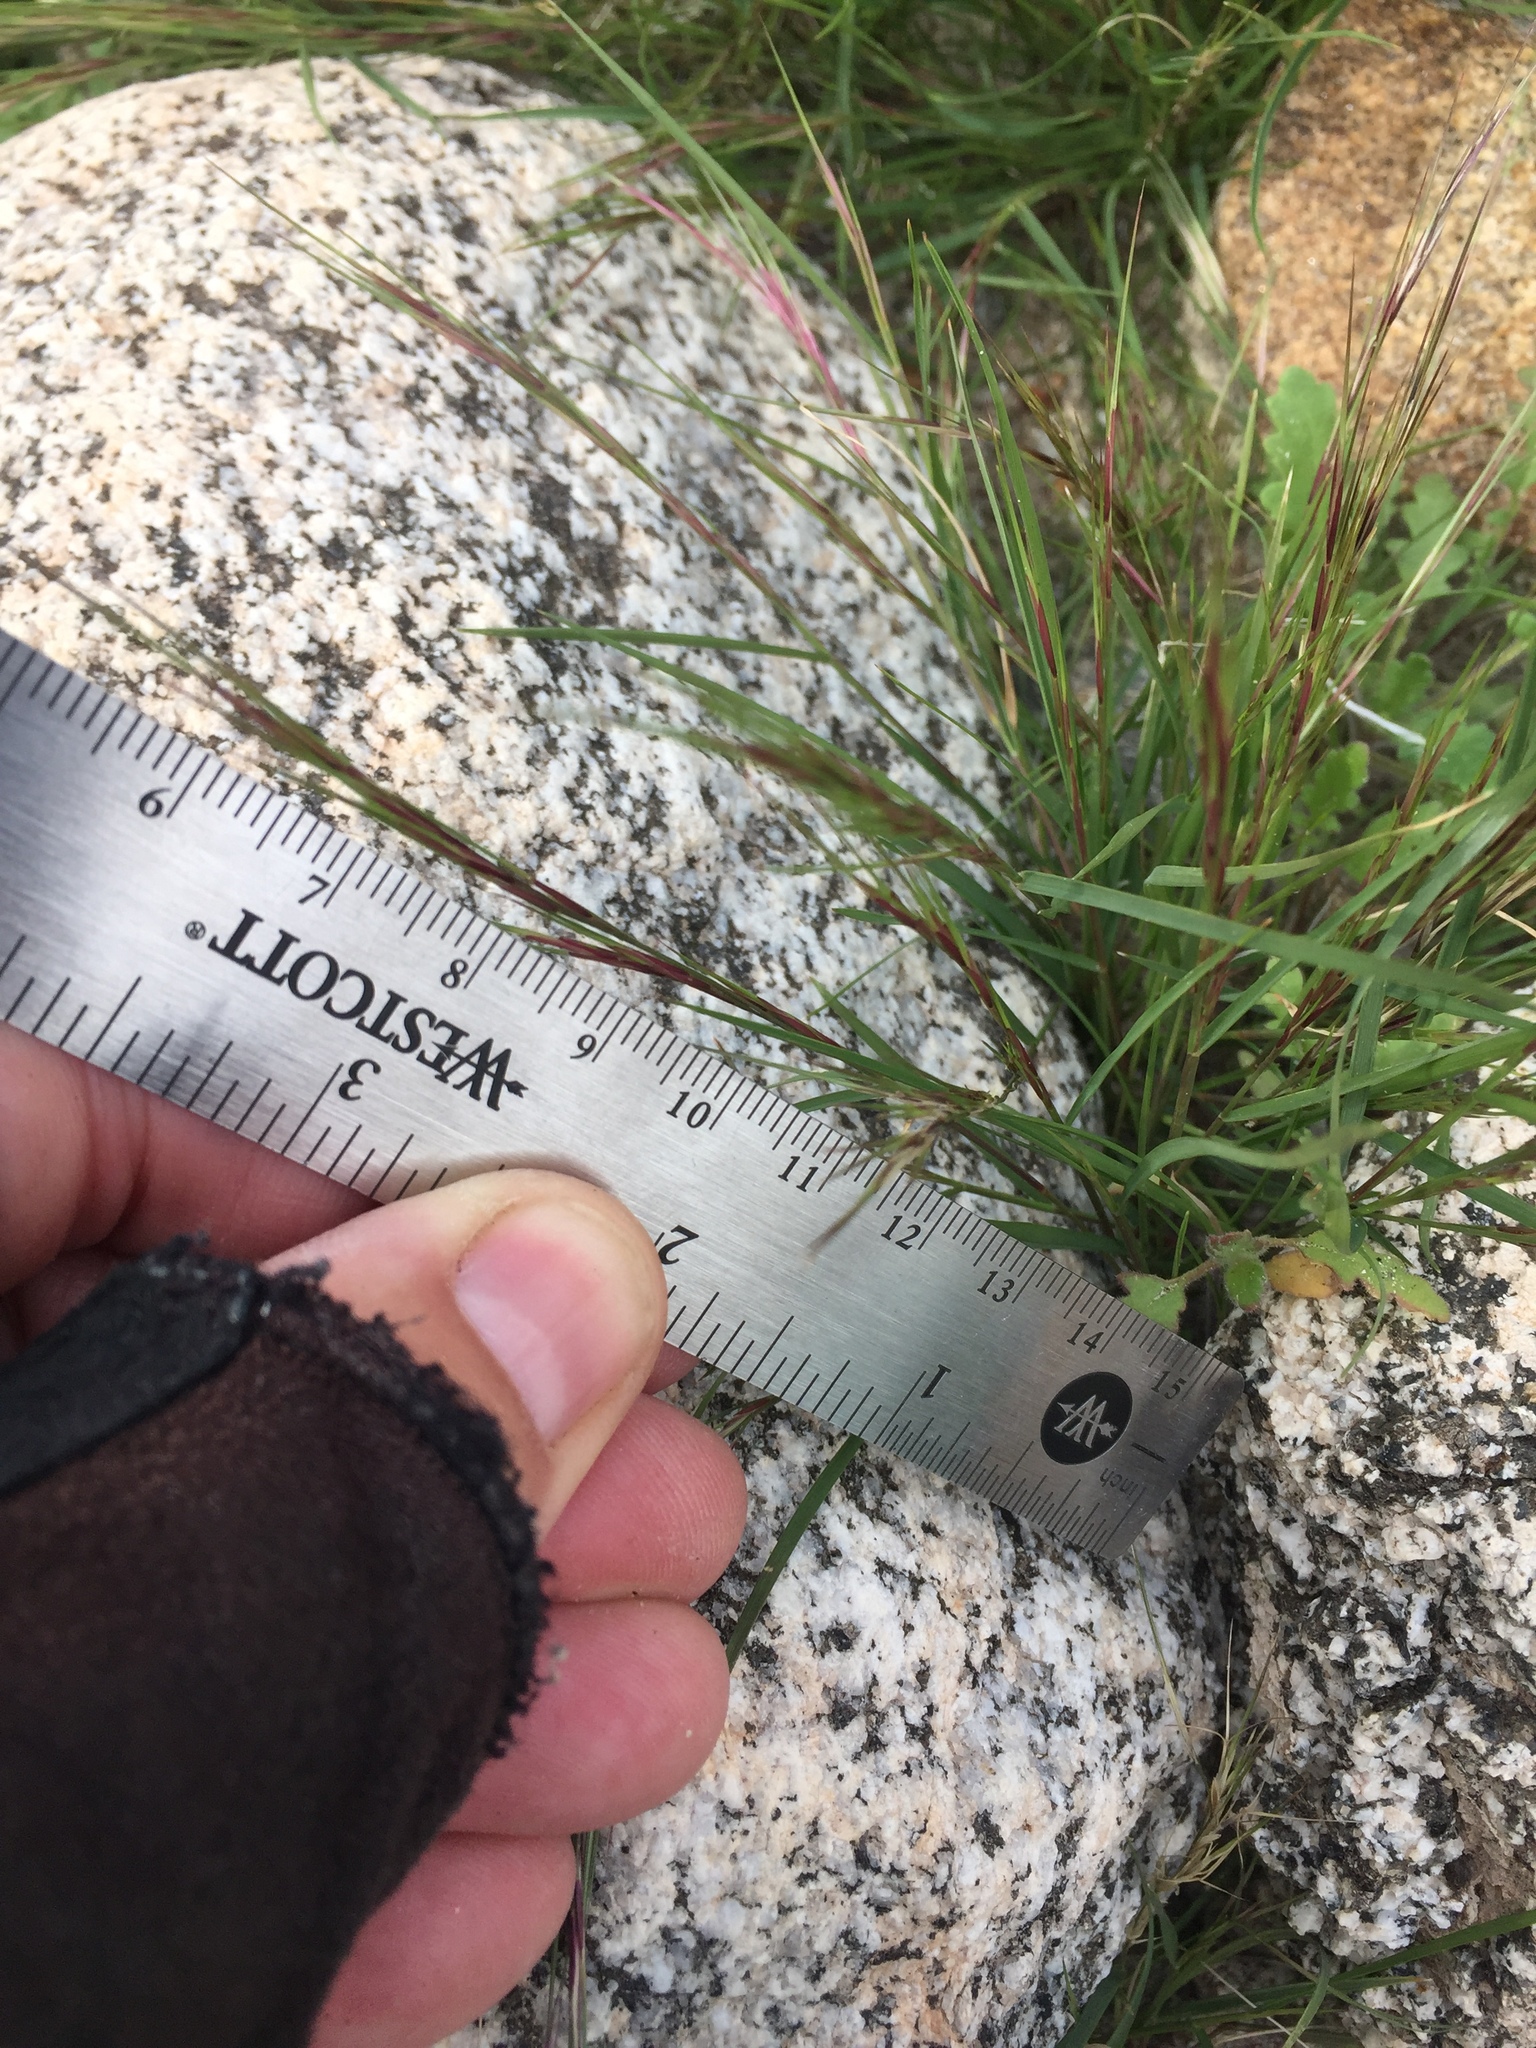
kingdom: Plantae
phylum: Tracheophyta
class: Liliopsida
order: Poales
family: Poaceae
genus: Aristida
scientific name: Aristida adscensionis
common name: Sixweeks threeawn
